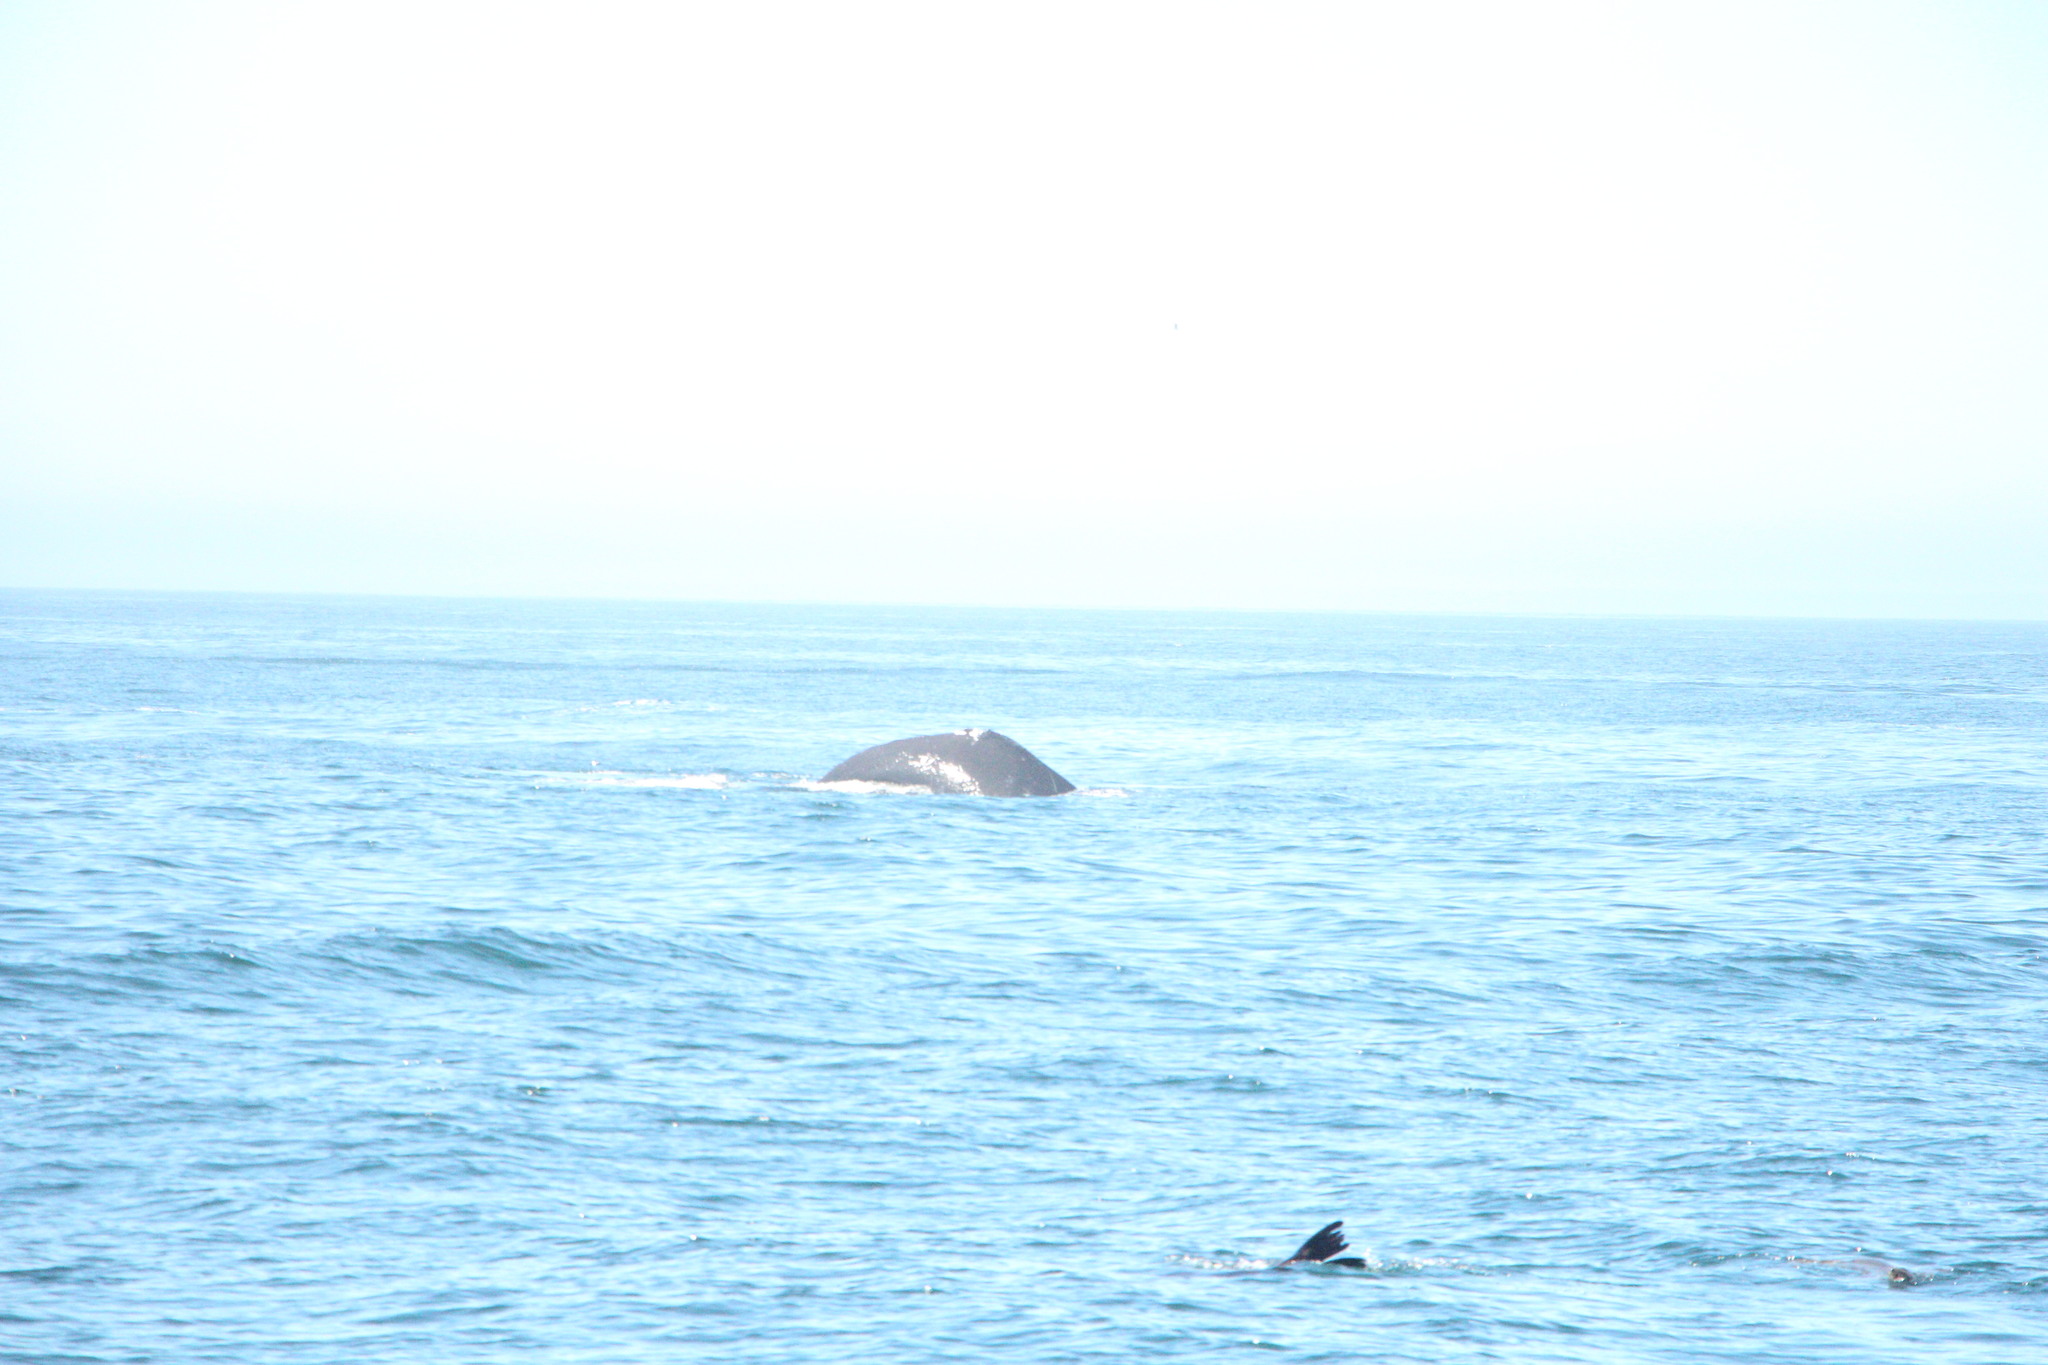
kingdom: Animalia
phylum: Chordata
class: Mammalia
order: Cetacea
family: Balaenopteridae
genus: Megaptera
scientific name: Megaptera novaeangliae
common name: Humpback whale
